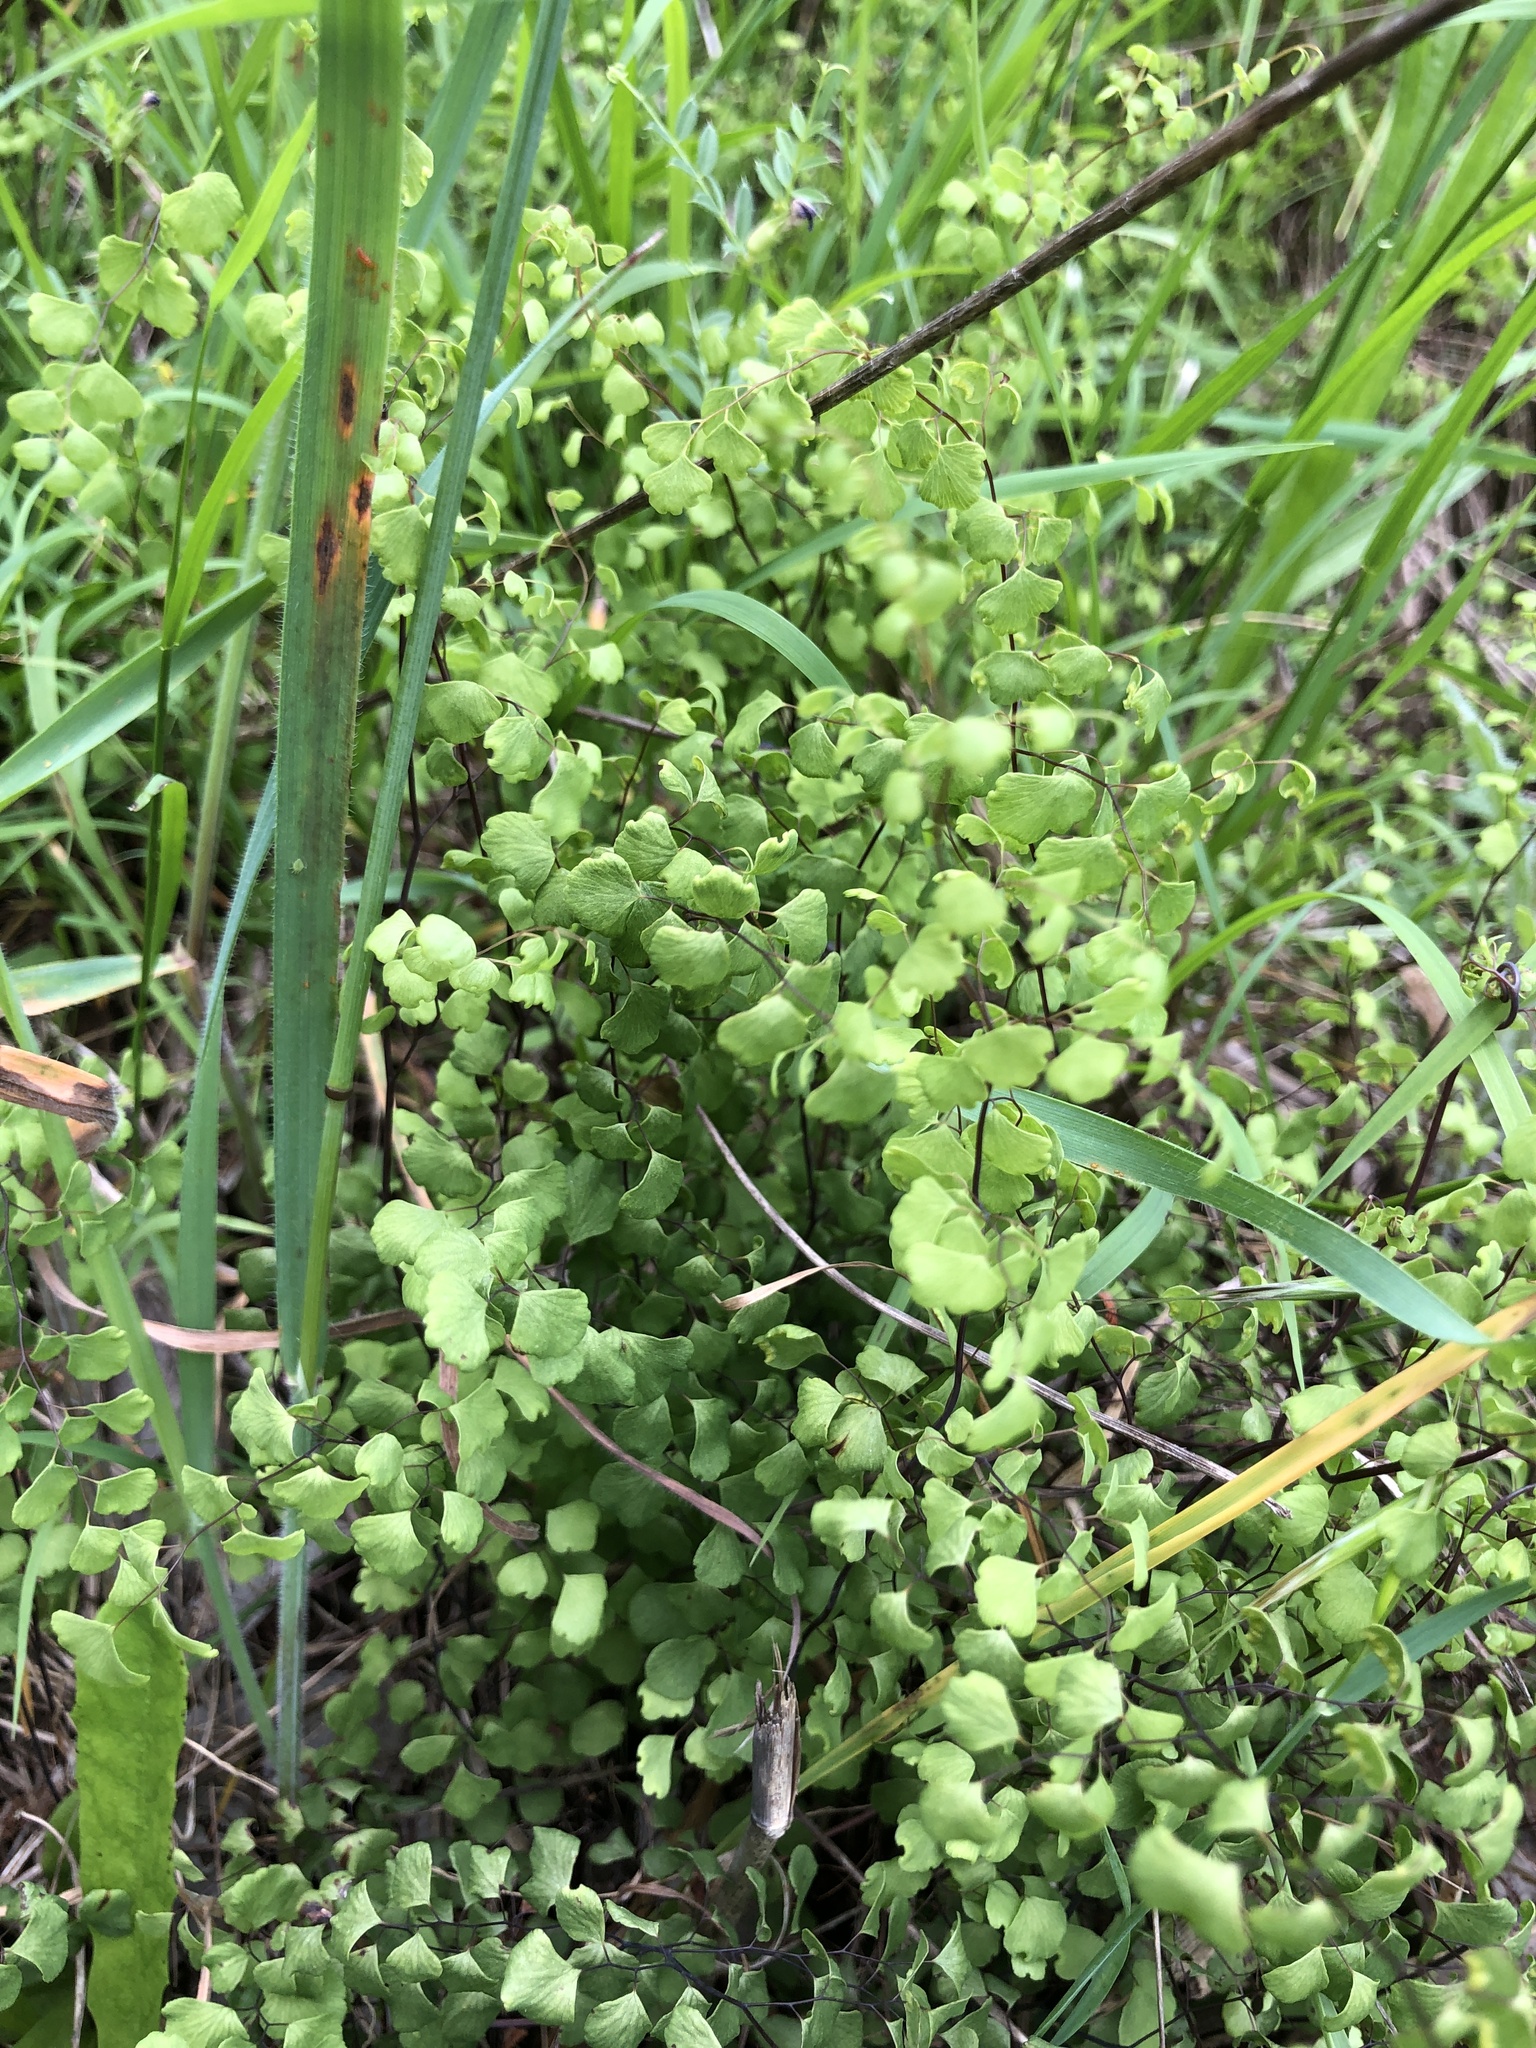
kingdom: Plantae
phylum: Tracheophyta
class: Polypodiopsida
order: Polypodiales
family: Pteridaceae
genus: Adiantum
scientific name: Adiantum aethiopicum
